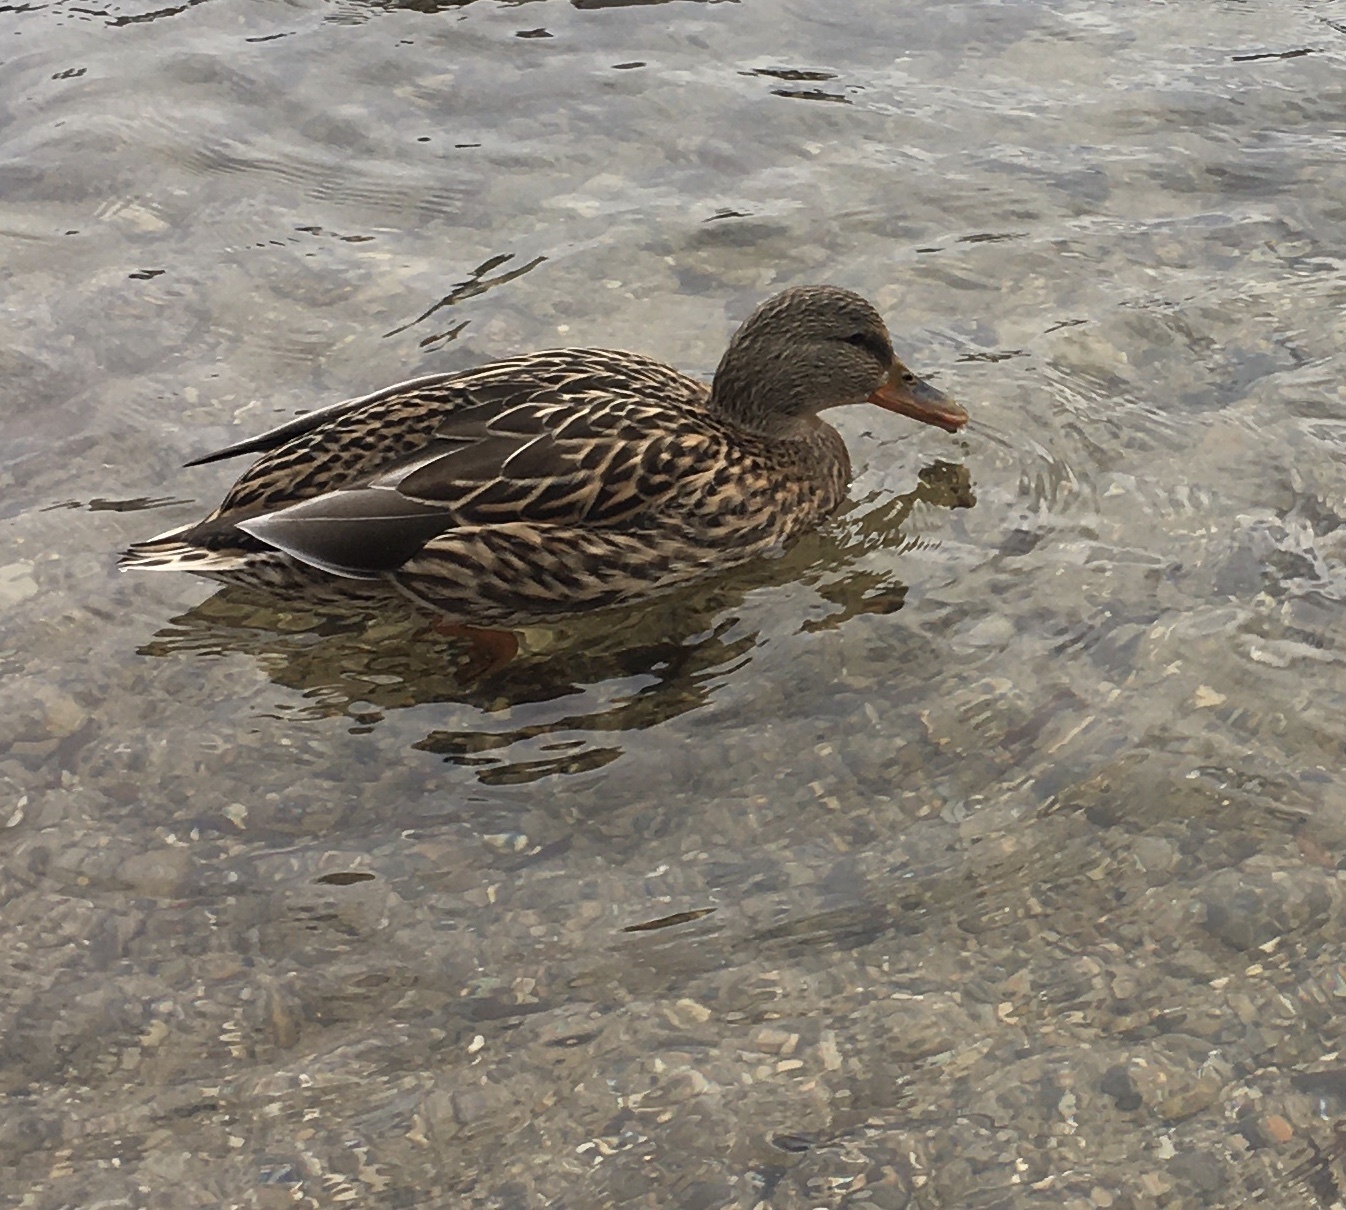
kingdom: Animalia
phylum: Chordata
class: Aves
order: Anseriformes
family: Anatidae
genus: Anas
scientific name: Anas platyrhynchos
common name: Mallard
